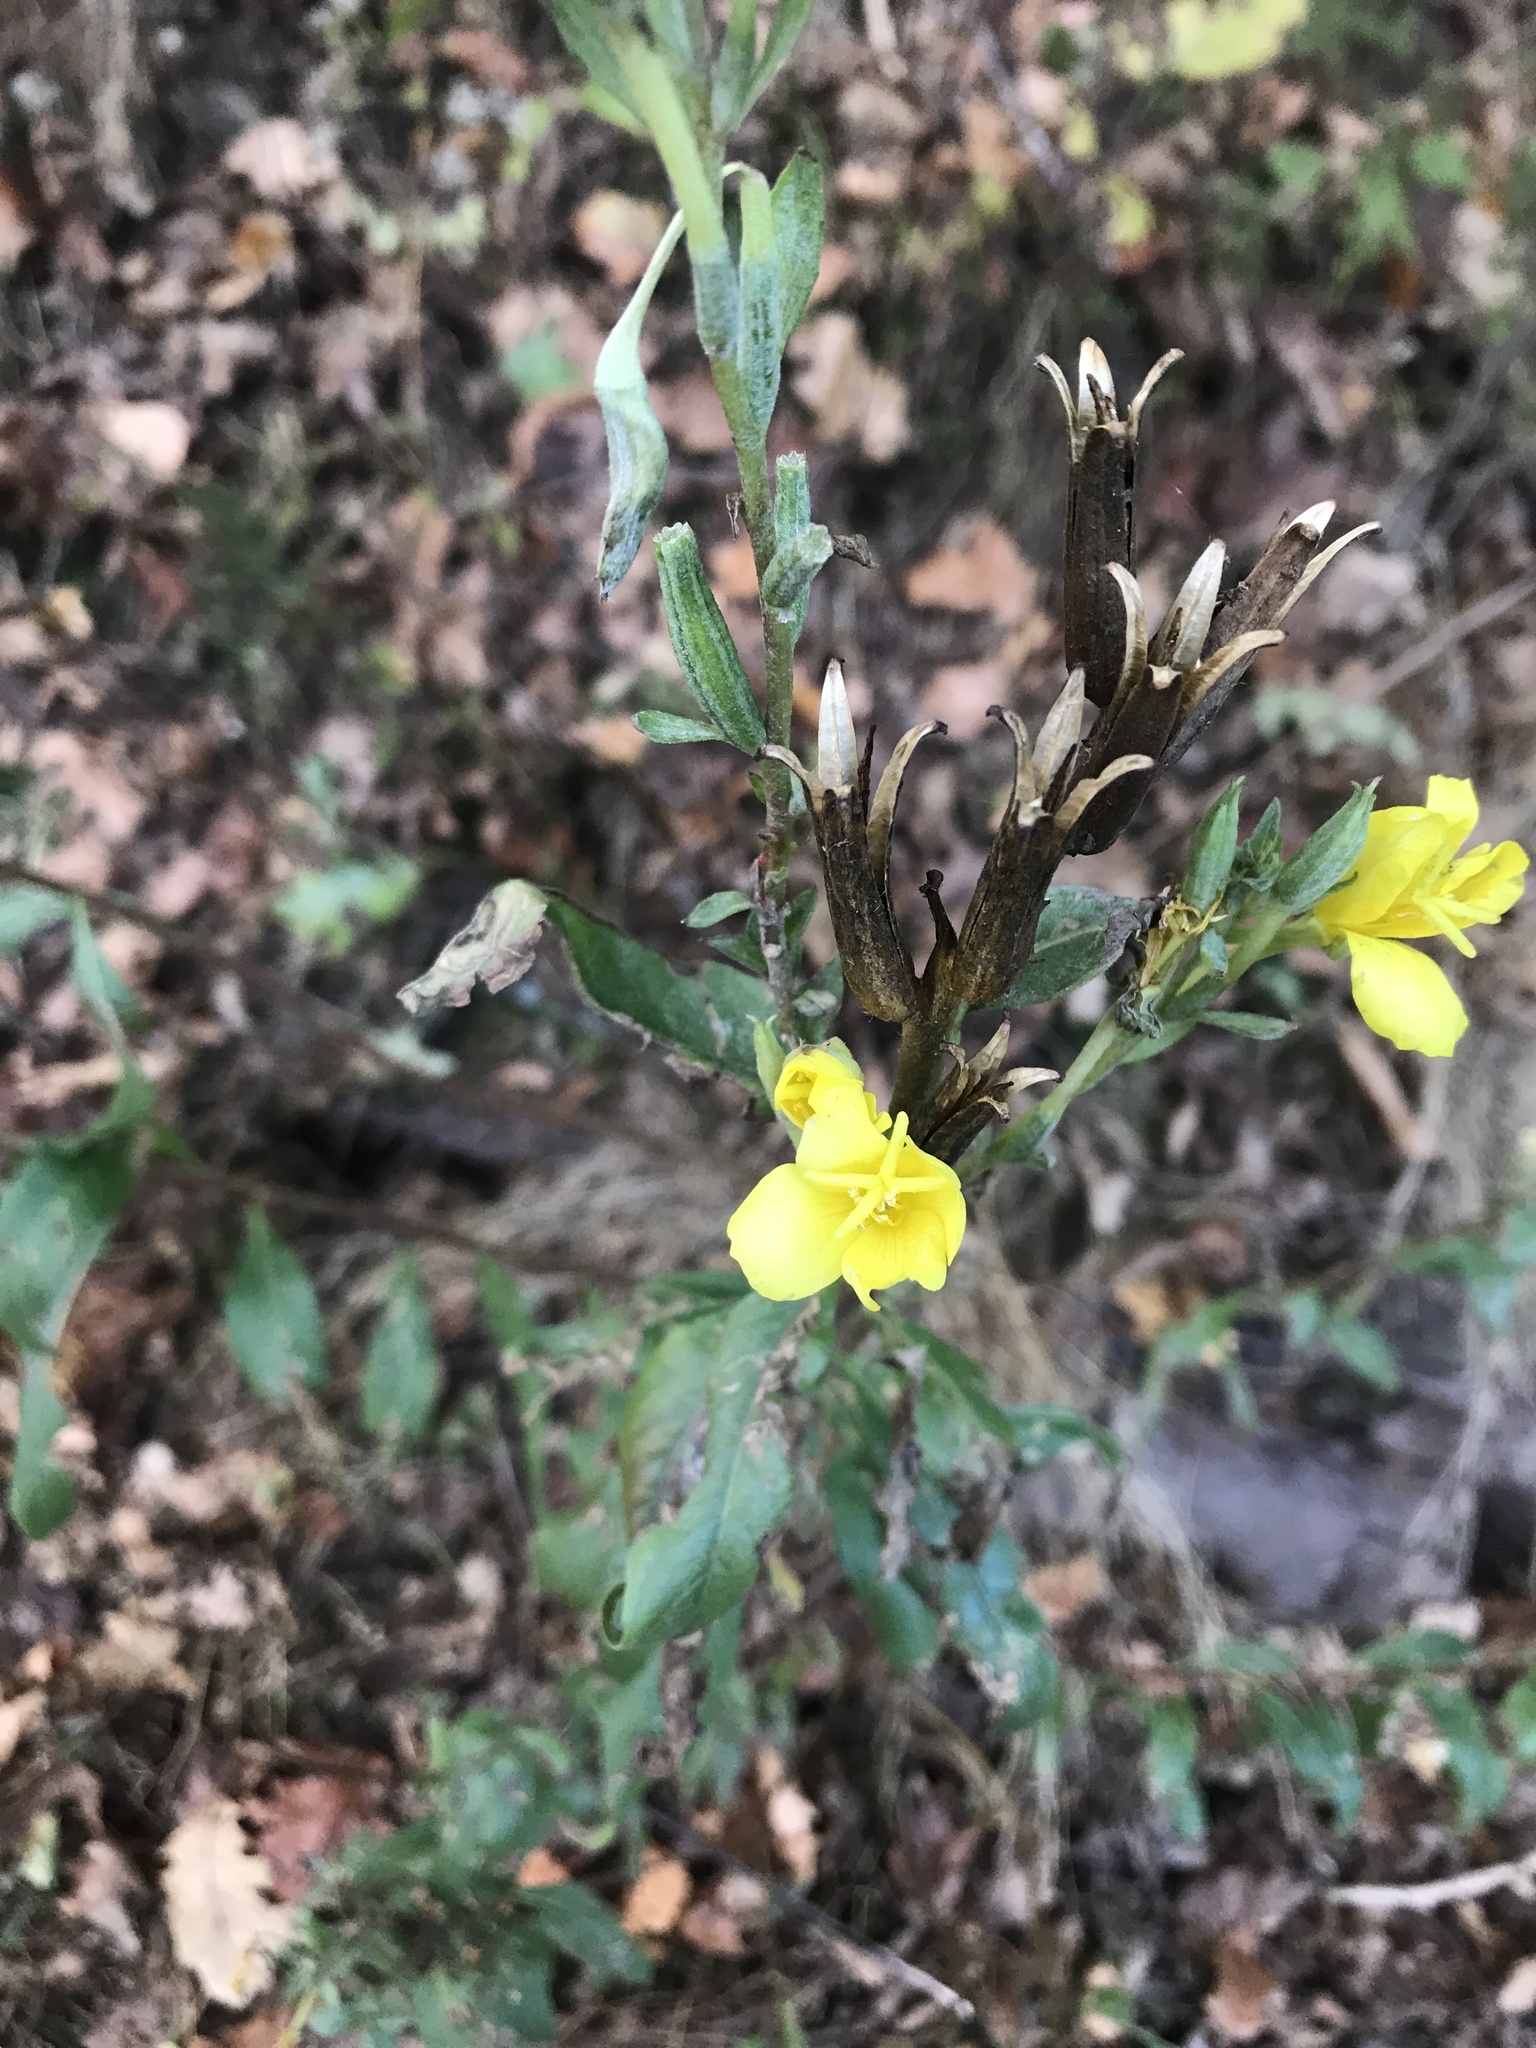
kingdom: Plantae
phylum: Tracheophyta
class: Magnoliopsida
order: Myrtales
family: Onagraceae
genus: Oenothera
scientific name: Oenothera biennis
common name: Common evening-primrose
